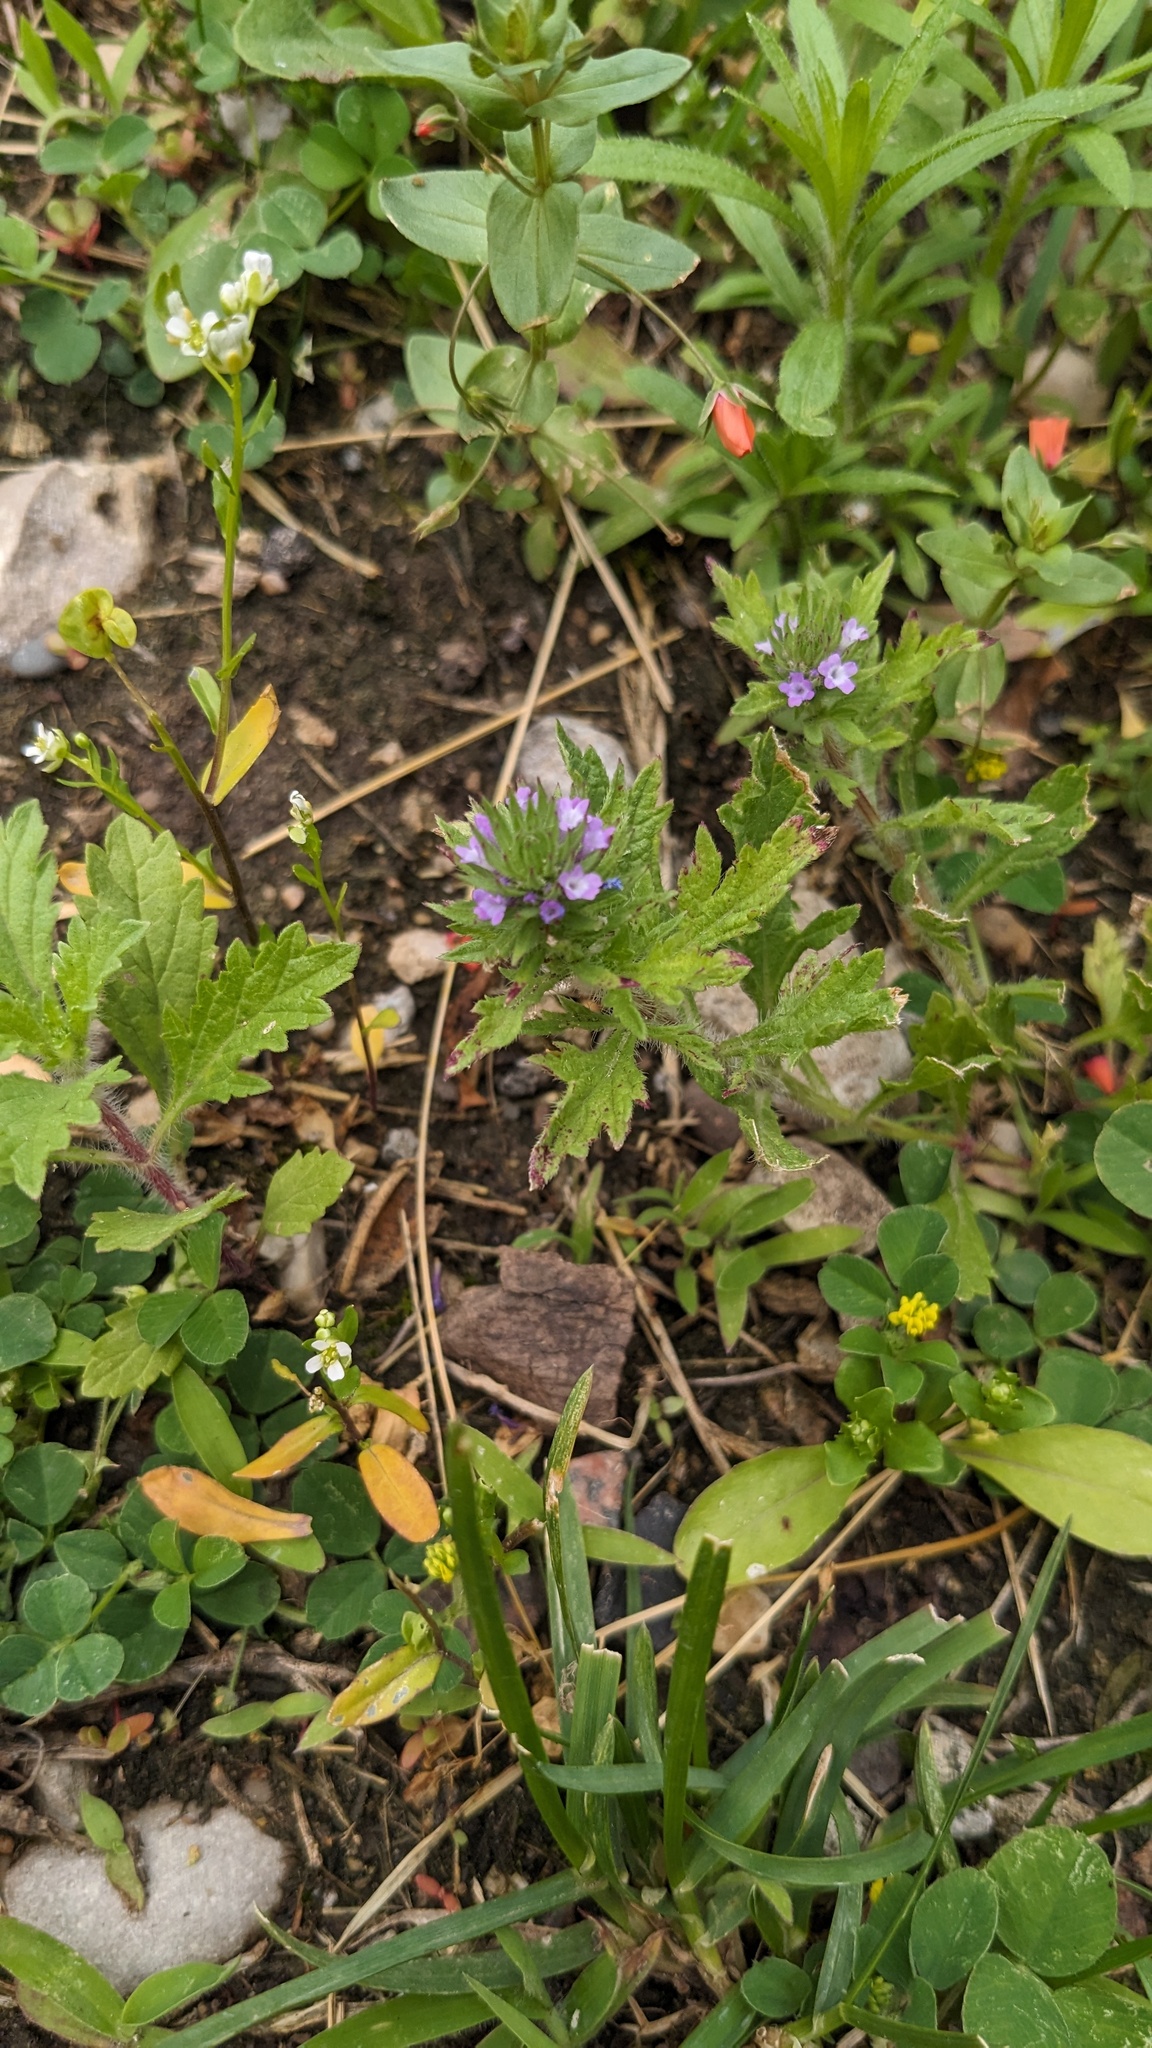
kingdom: Plantae
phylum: Tracheophyta
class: Magnoliopsida
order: Lamiales
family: Verbenaceae
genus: Verbena
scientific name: Verbena bracteata
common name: Bracted vervain
